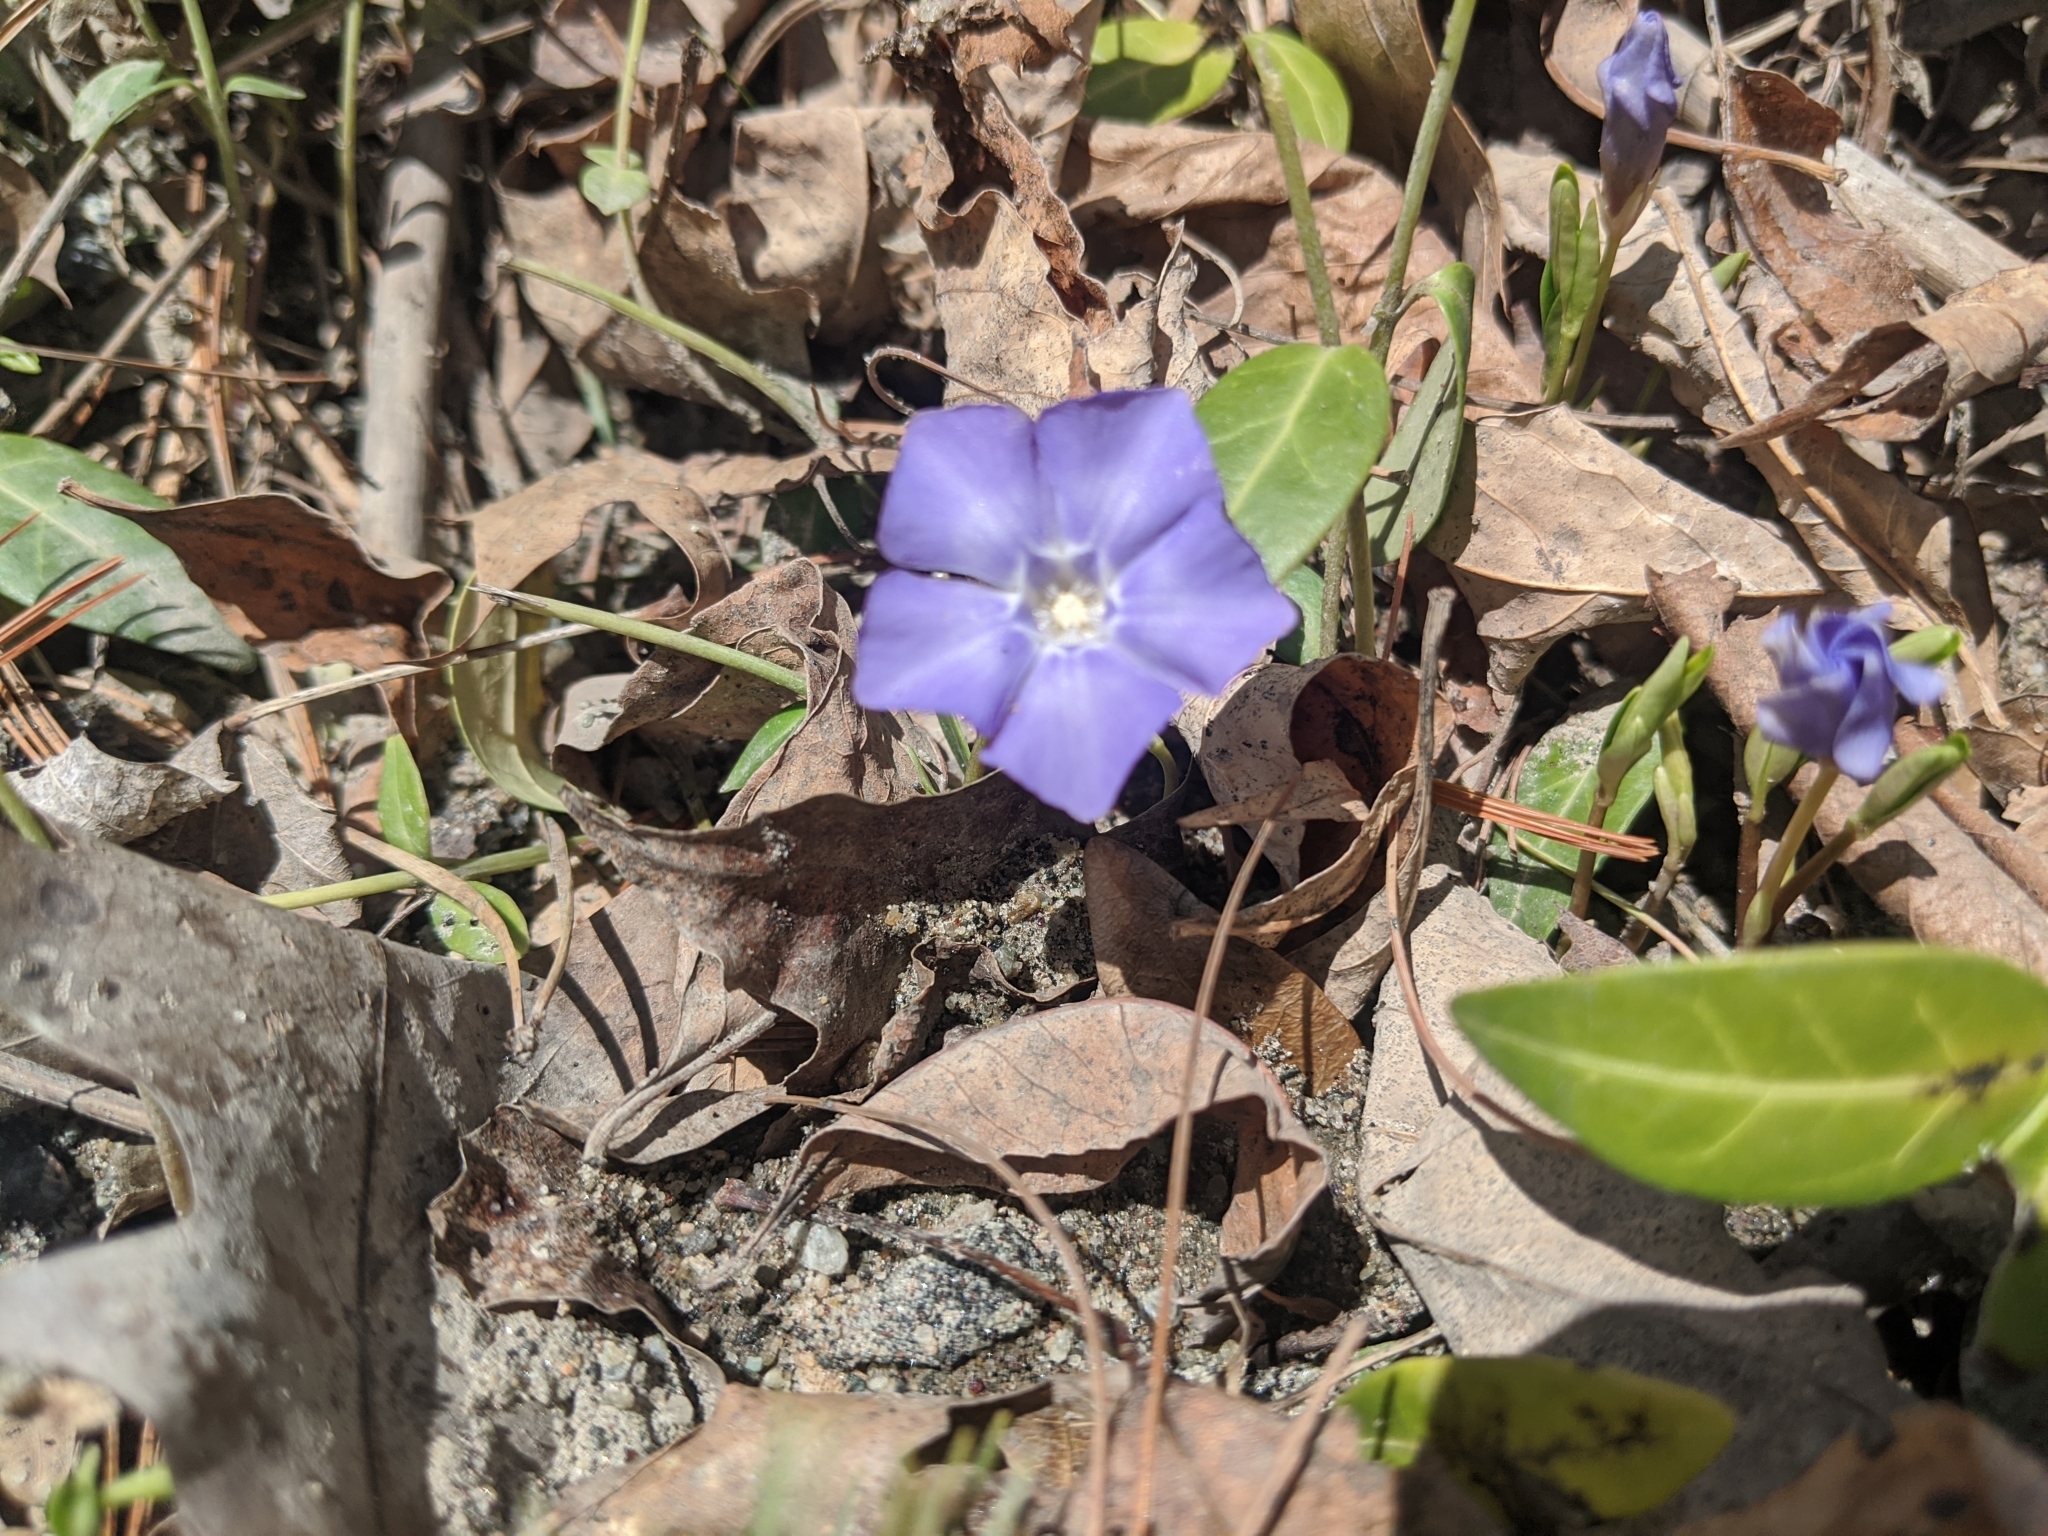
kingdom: Plantae
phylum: Tracheophyta
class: Magnoliopsida
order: Gentianales
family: Apocynaceae
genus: Vinca
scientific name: Vinca minor
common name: Lesser periwinkle
